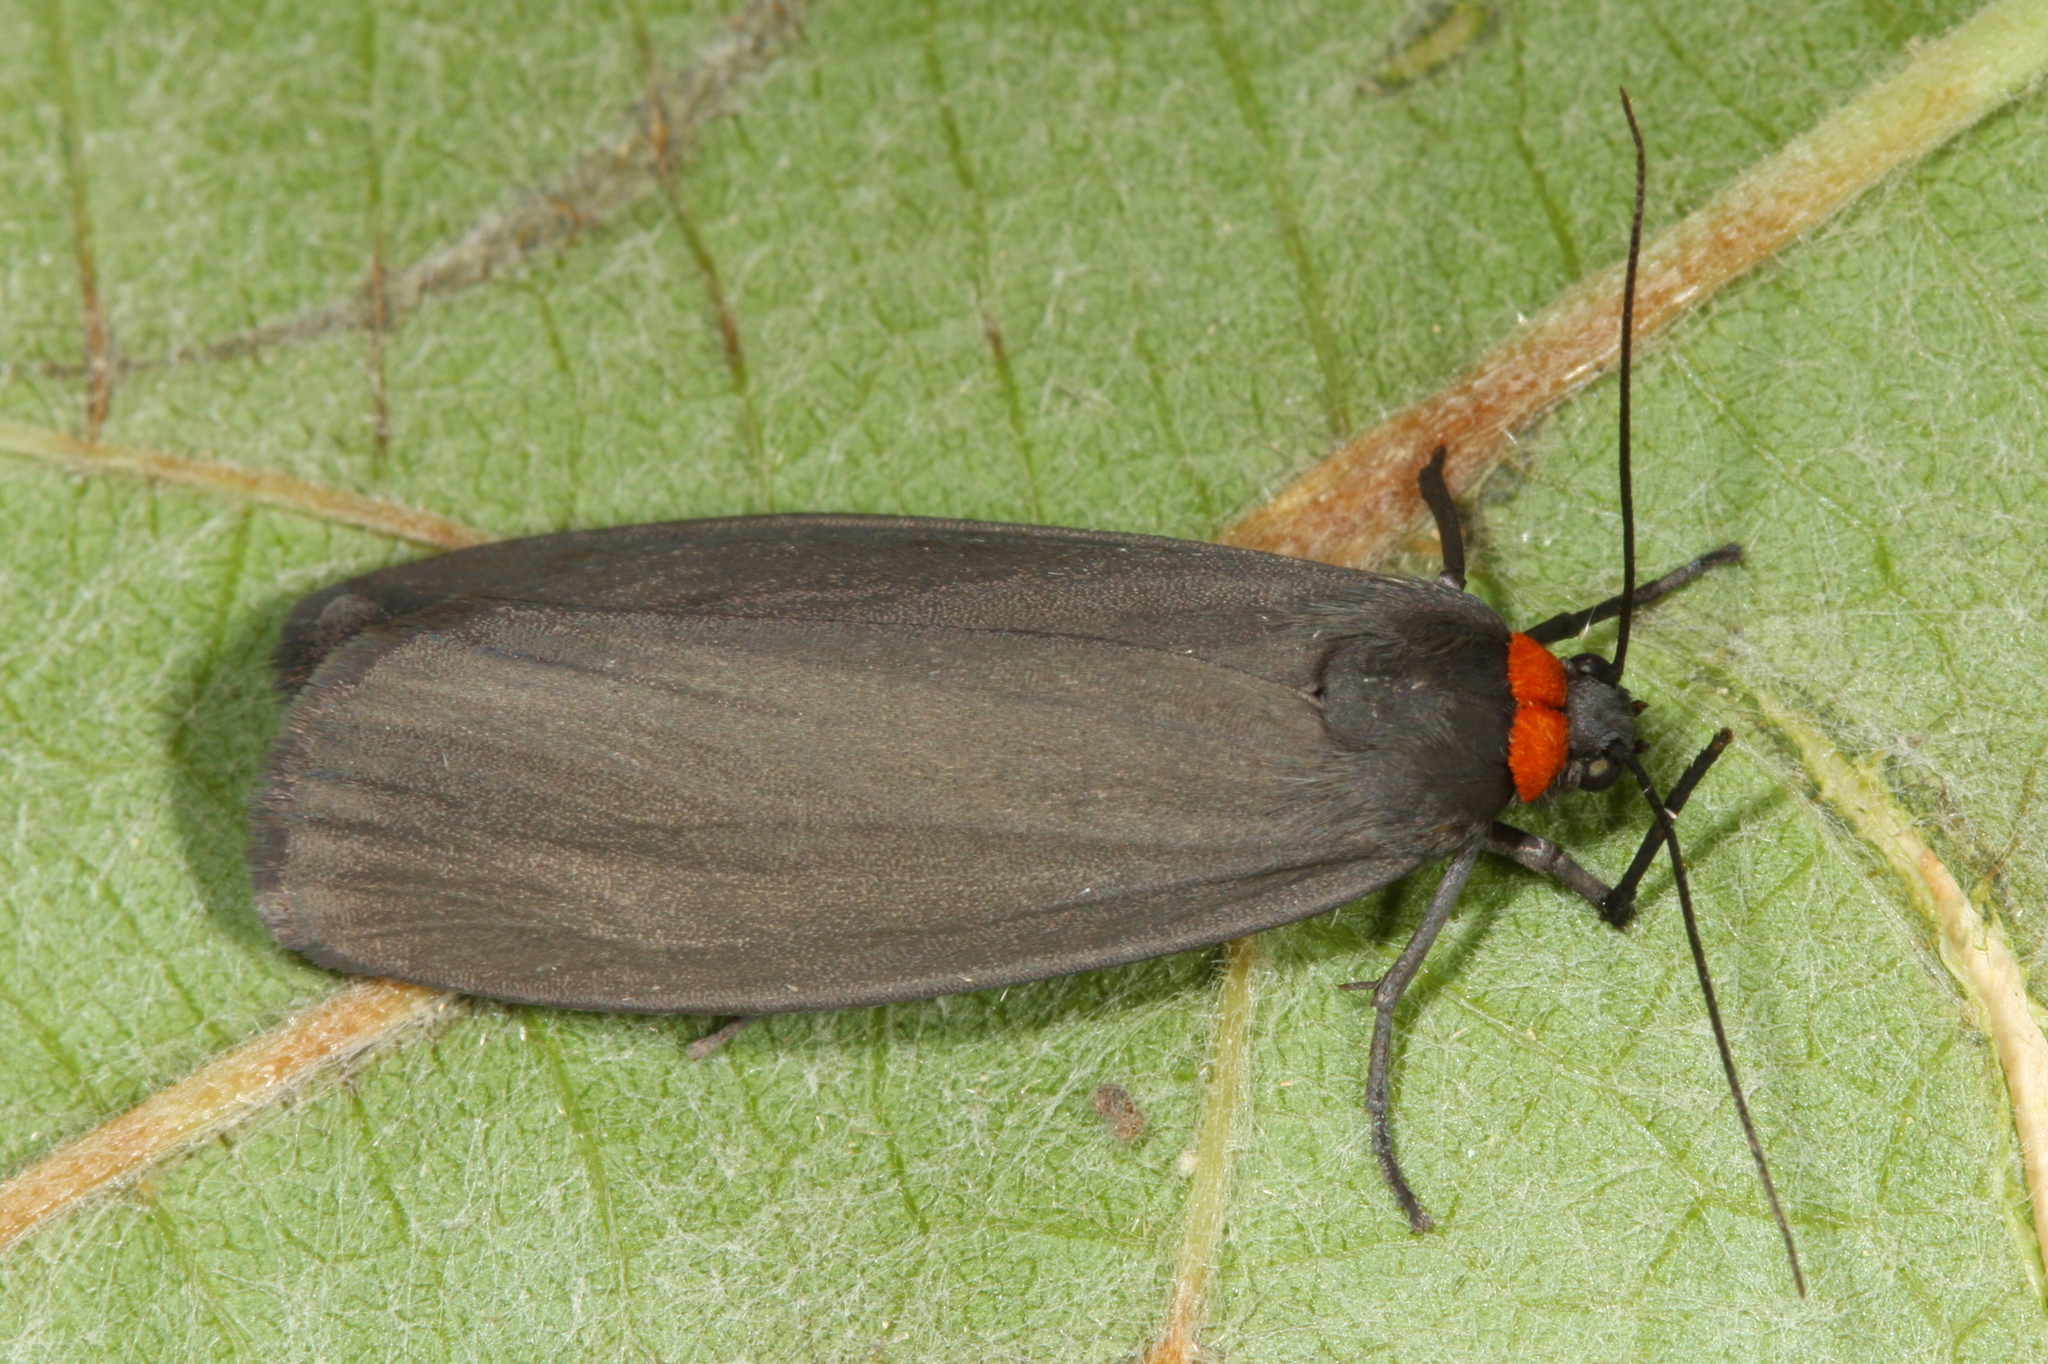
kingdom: Animalia
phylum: Arthropoda
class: Insecta
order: Lepidoptera
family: Erebidae
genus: Atolmis
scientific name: Atolmis rubricollis
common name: Red-necked footman
